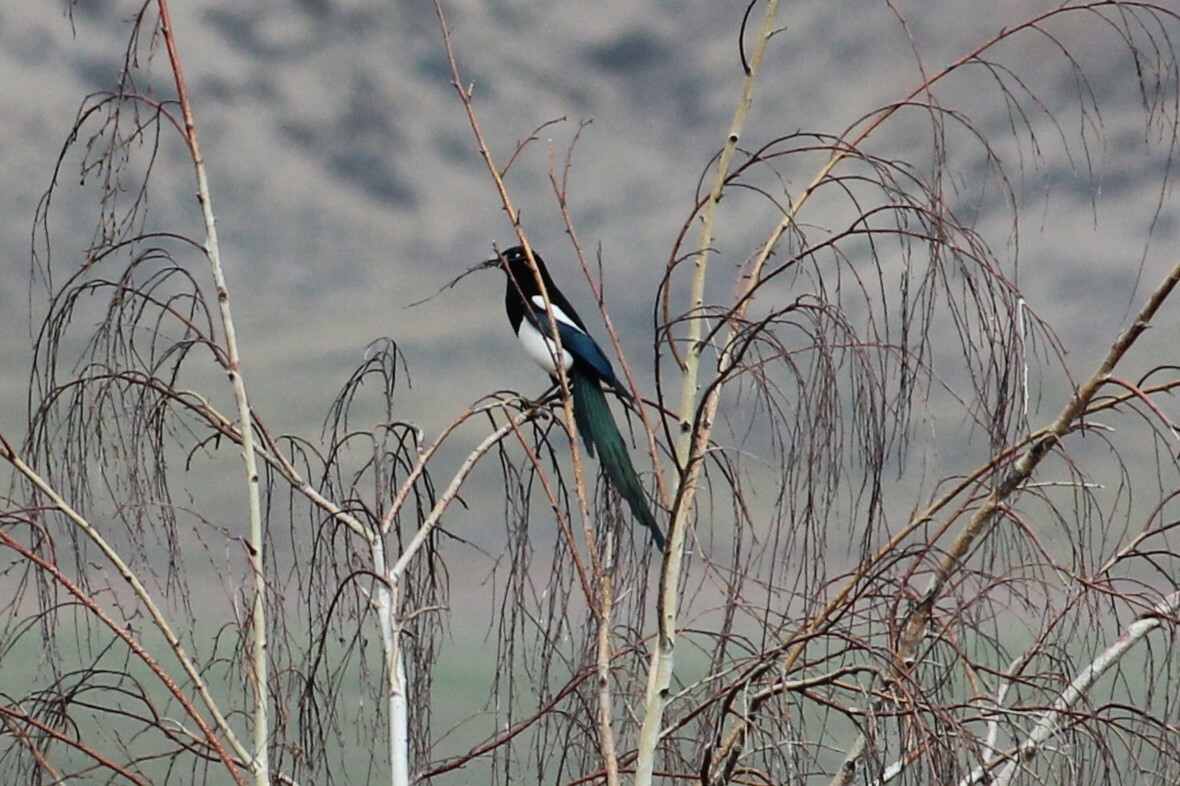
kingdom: Animalia
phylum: Chordata
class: Aves
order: Passeriformes
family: Corvidae
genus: Pica
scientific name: Pica hudsonia
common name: Black-billed magpie
